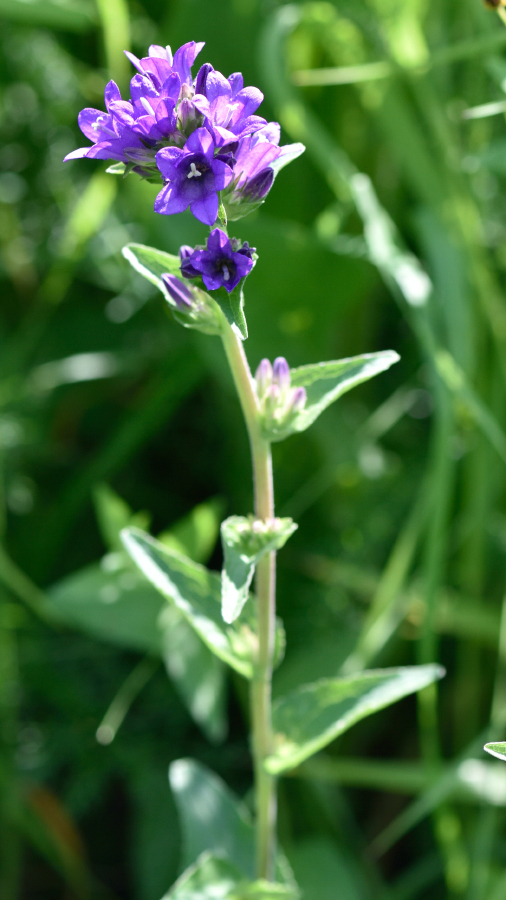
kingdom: Plantae
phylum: Tracheophyta
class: Magnoliopsida
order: Asterales
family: Campanulaceae
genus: Campanula
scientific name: Campanula glomerata
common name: Clustered bellflower
